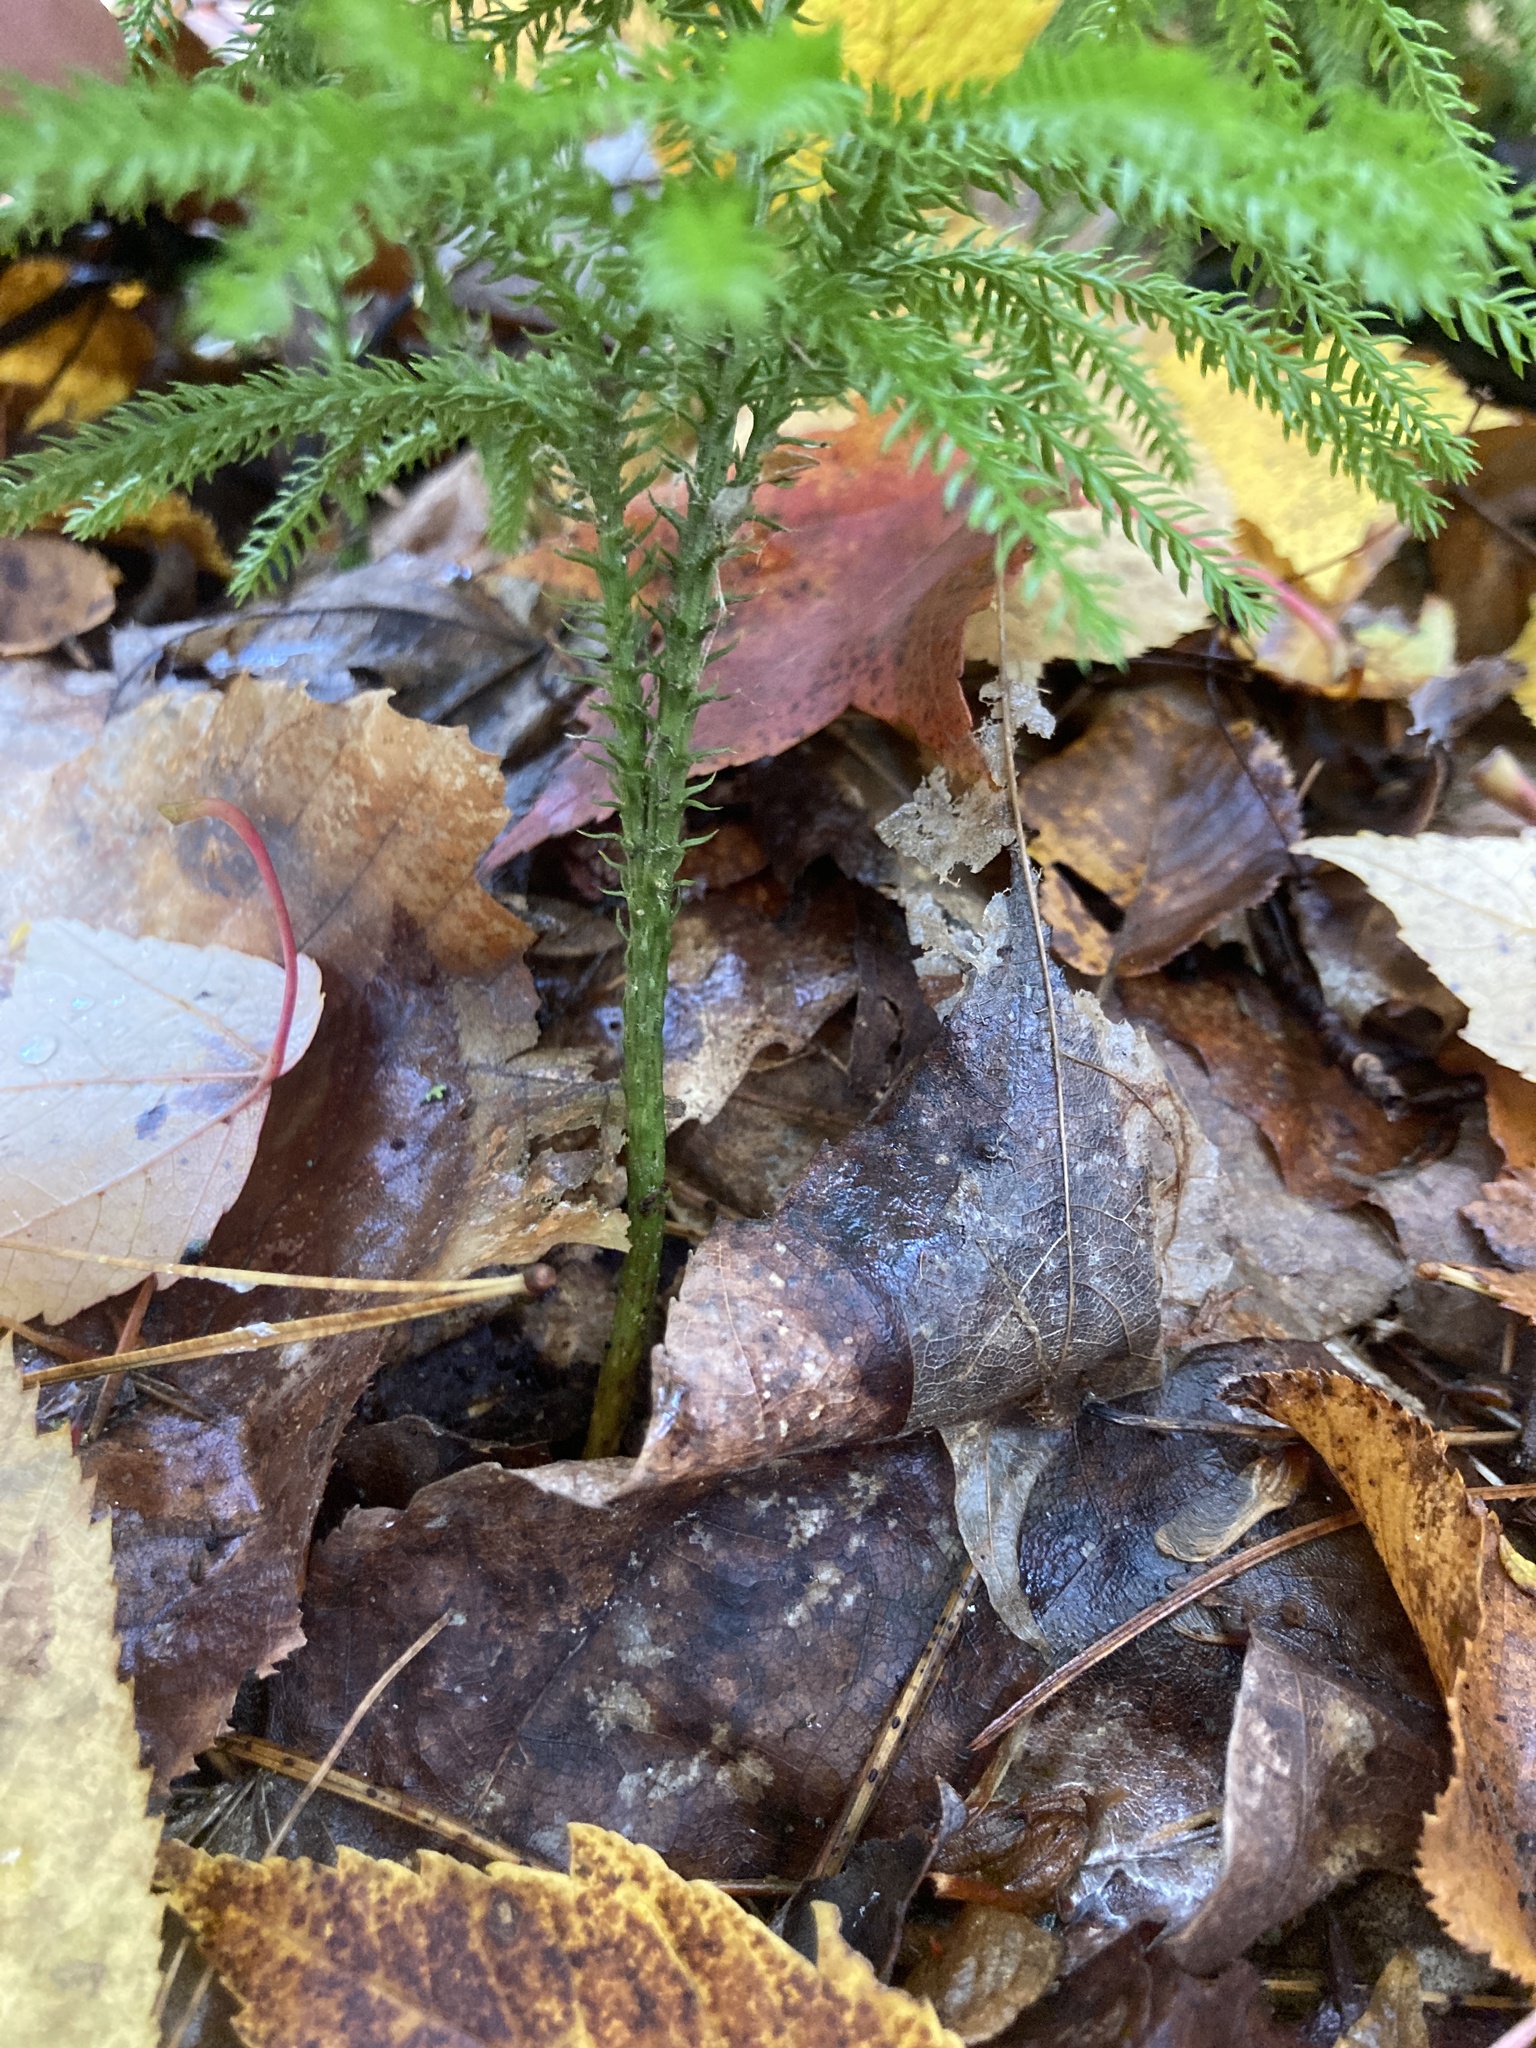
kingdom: Plantae
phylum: Tracheophyta
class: Lycopodiopsida
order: Lycopodiales
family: Lycopodiaceae
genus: Dendrolycopodium
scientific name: Dendrolycopodium dendroideum
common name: Northern tree-clubmoss
